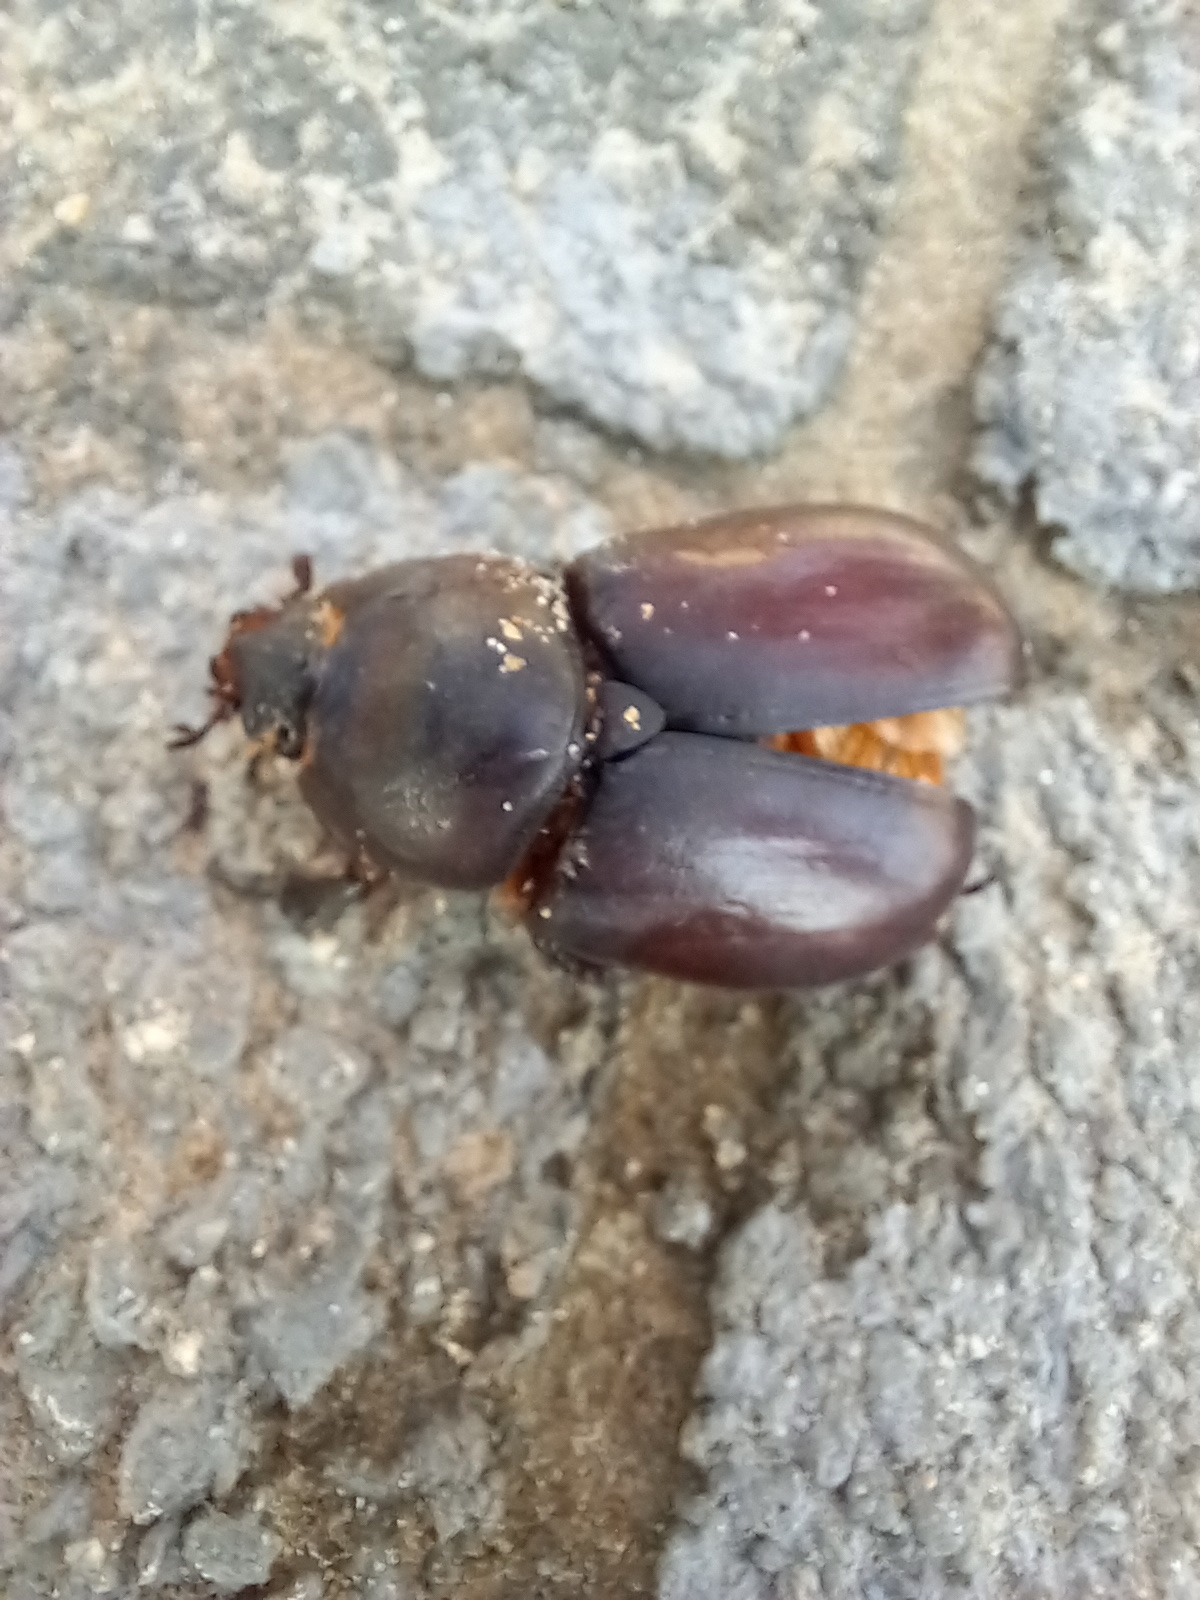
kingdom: Animalia
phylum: Arthropoda
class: Insecta
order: Coleoptera
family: Scarabaeidae
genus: Oryctes
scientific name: Oryctes nasicornis
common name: European rhinoceros beetle
